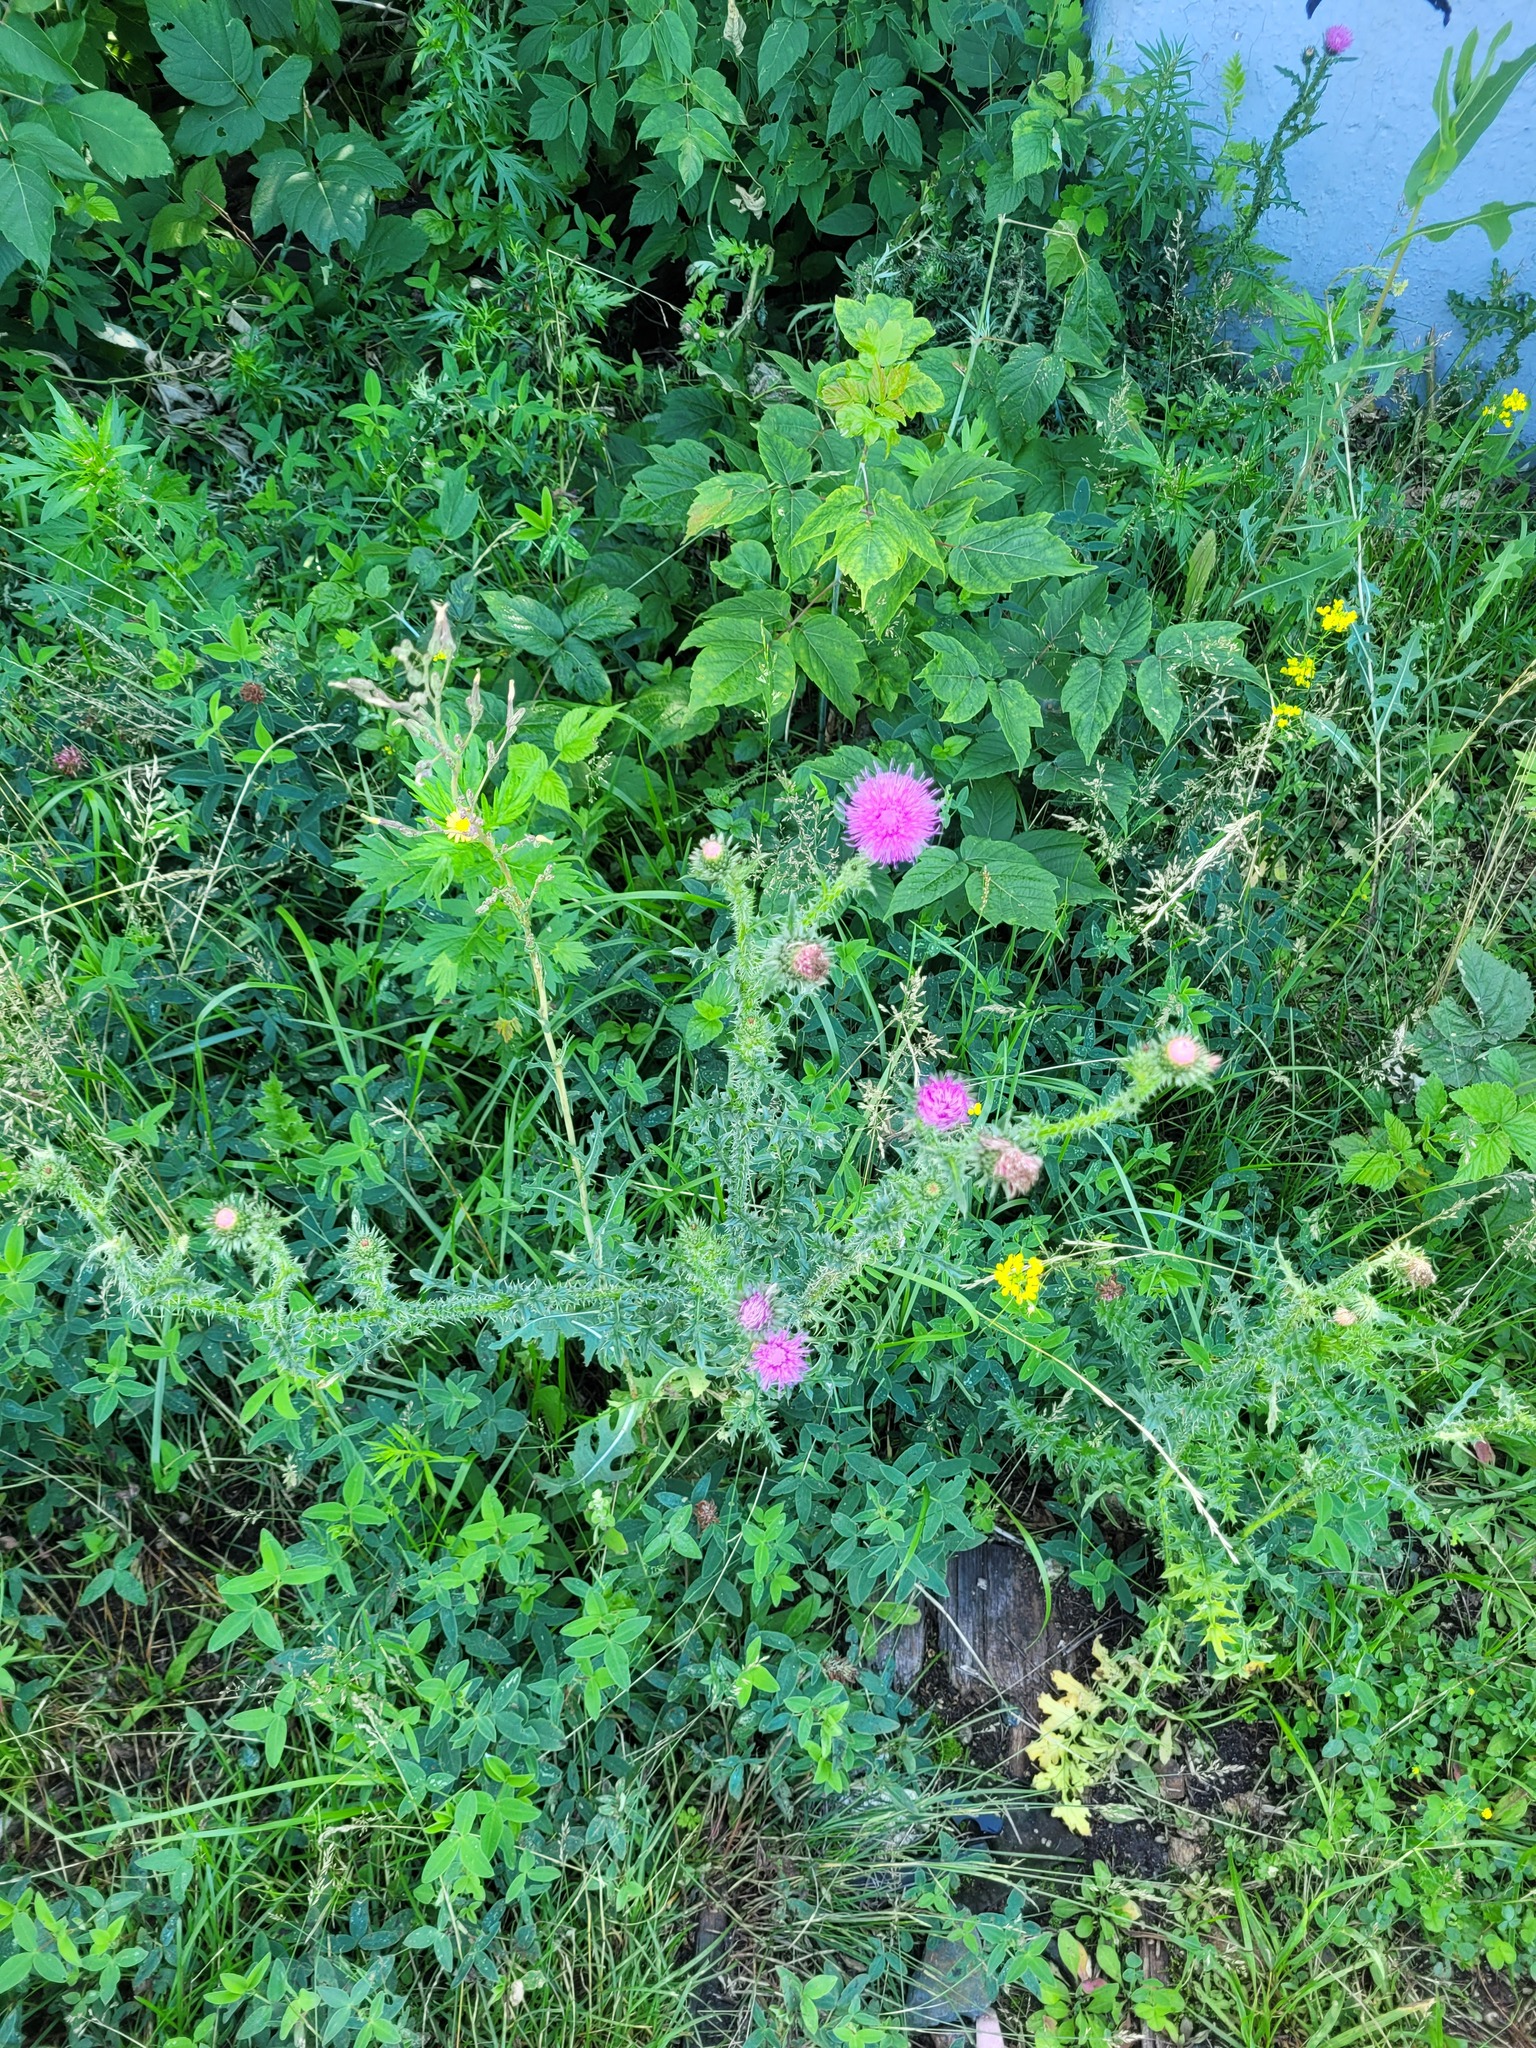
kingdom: Plantae
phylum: Tracheophyta
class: Magnoliopsida
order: Asterales
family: Asteraceae
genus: Carduus
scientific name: Carduus acanthoides
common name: Plumeless thistle
